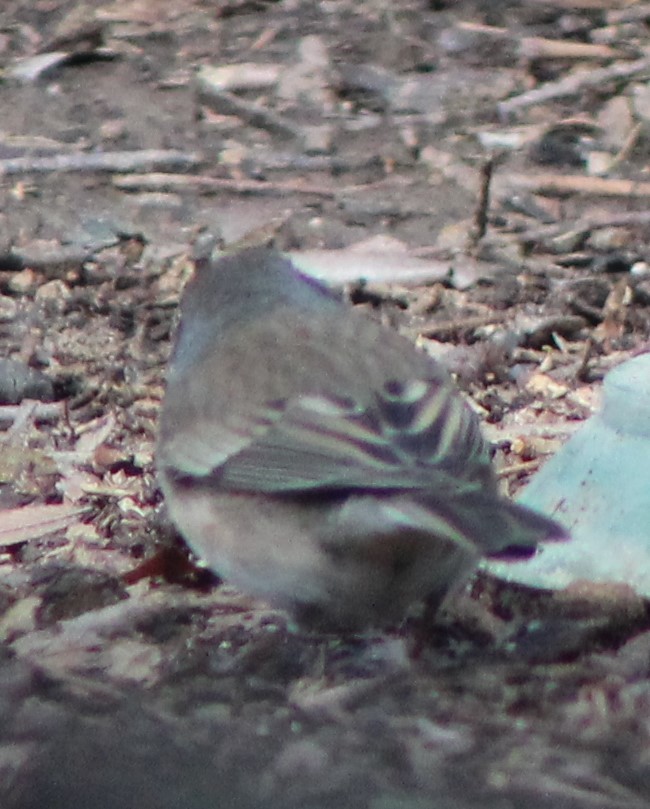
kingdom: Animalia
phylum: Chordata
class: Aves
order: Passeriformes
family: Passerellidae
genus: Junco
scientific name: Junco hyemalis
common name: Dark-eyed junco
